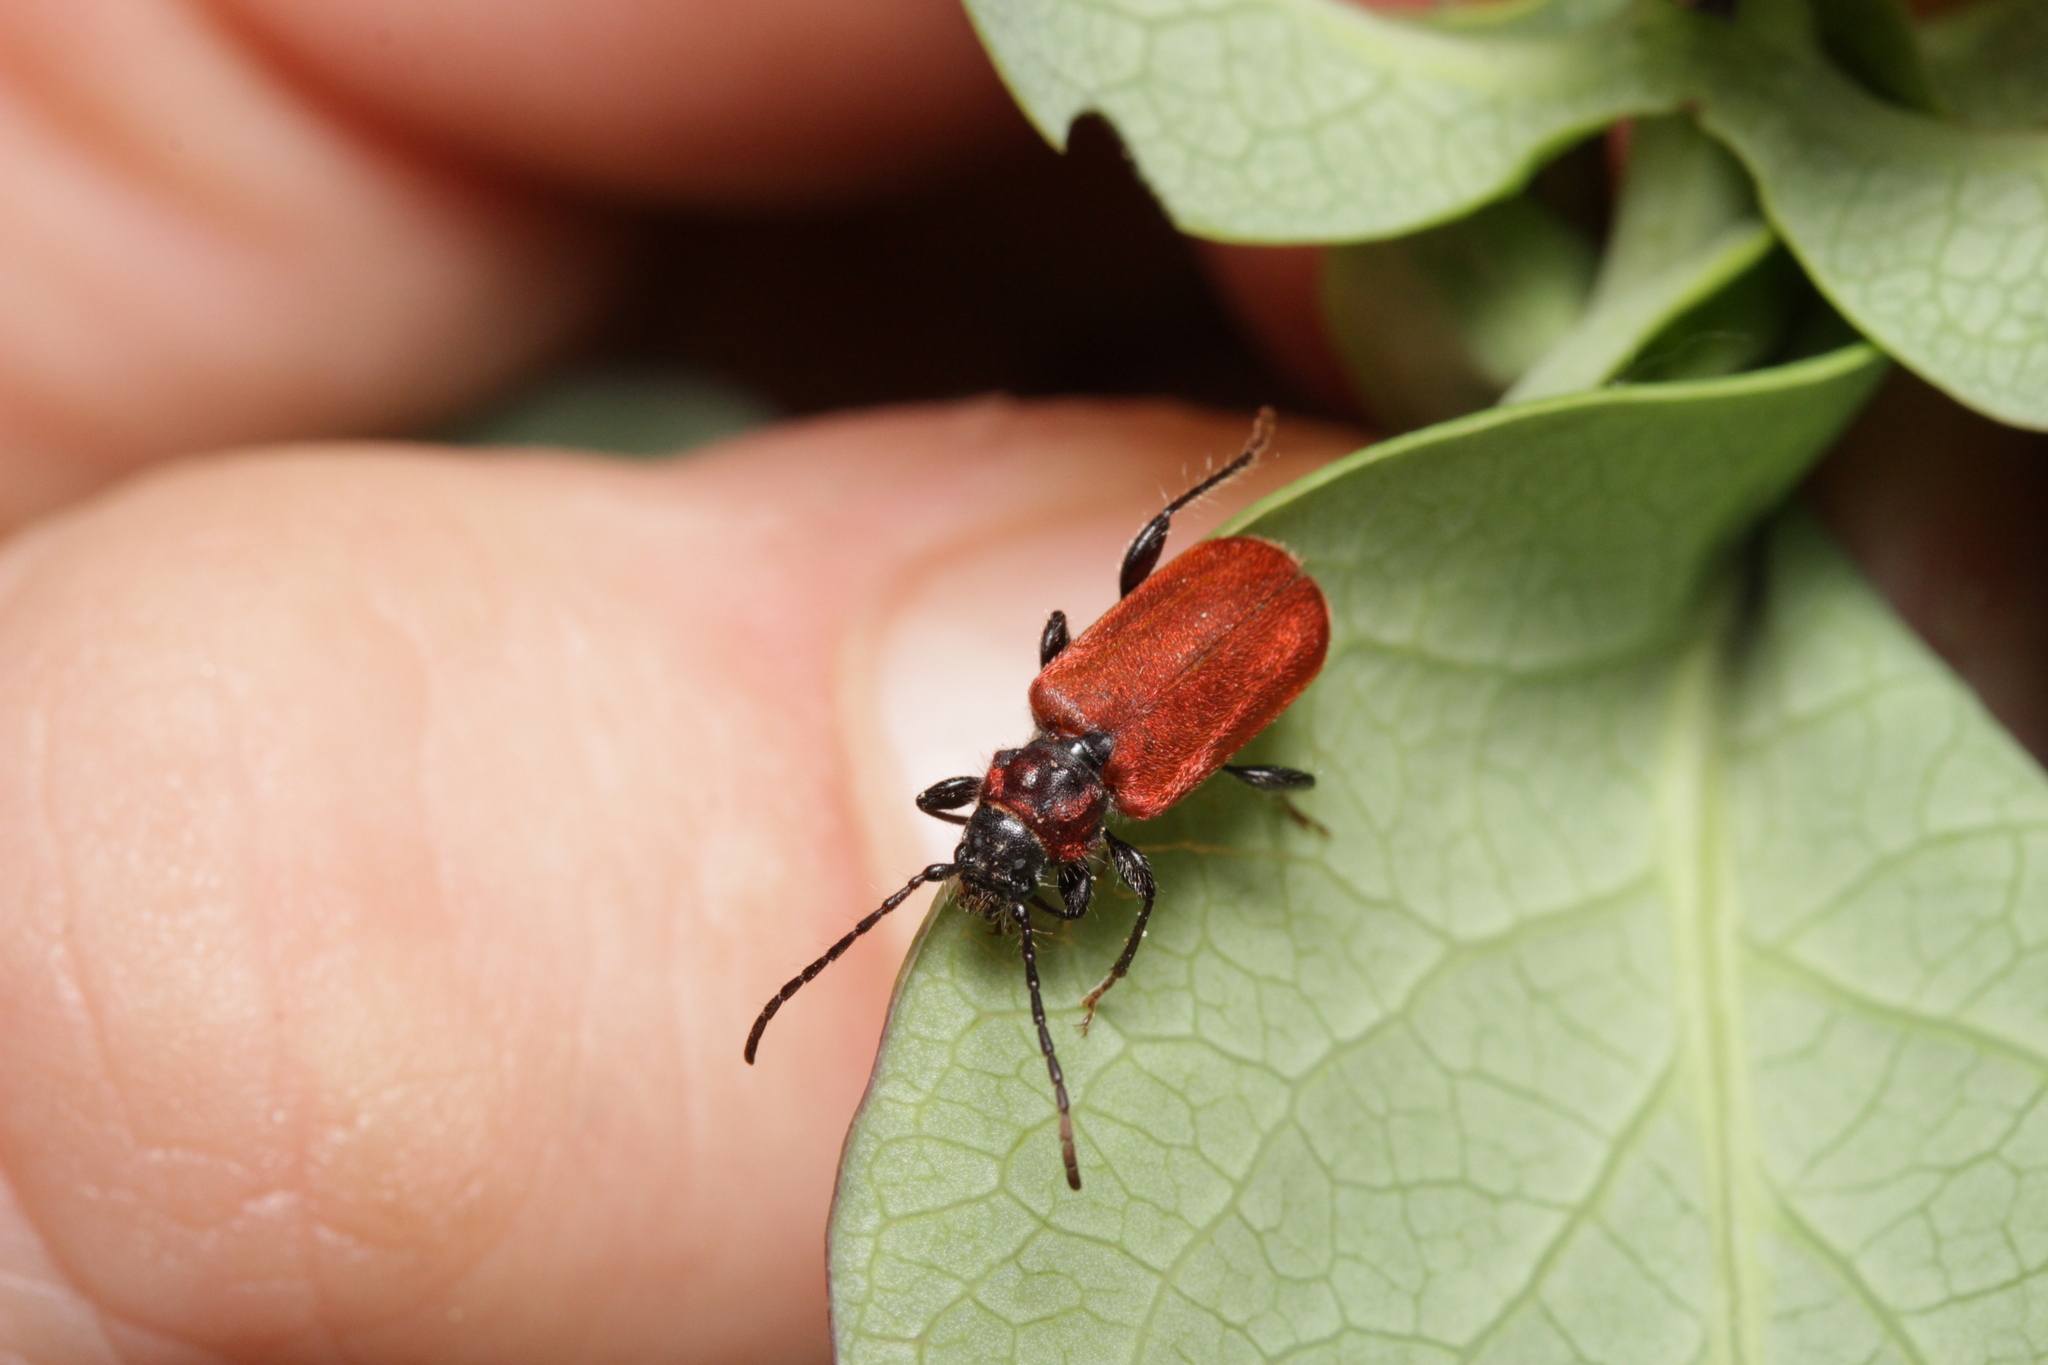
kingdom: Animalia
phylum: Arthropoda
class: Insecta
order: Coleoptera
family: Cerambycidae
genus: Pyrrhidium
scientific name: Pyrrhidium sanguineum
